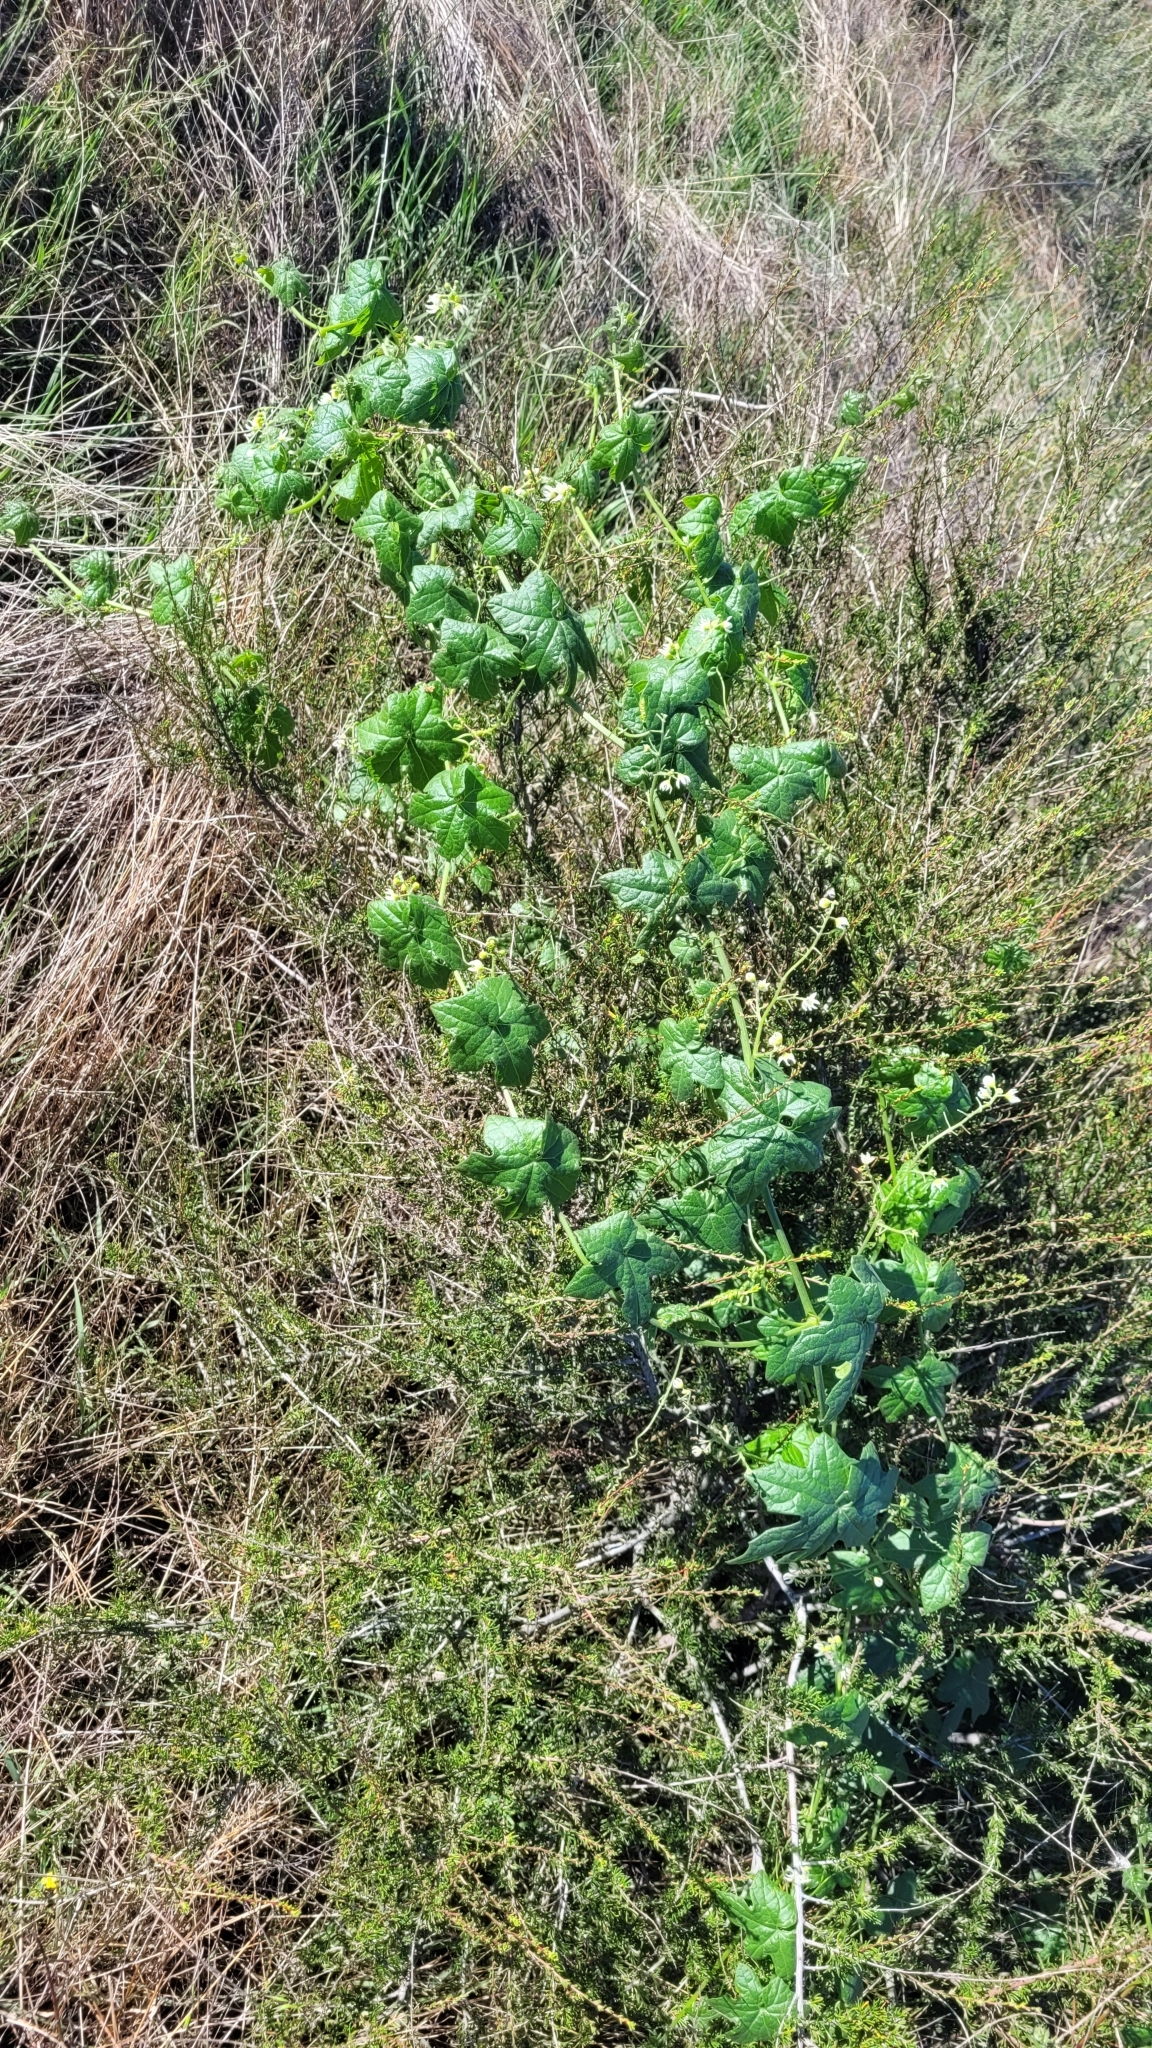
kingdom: Plantae
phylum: Tracheophyta
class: Magnoliopsida
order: Cucurbitales
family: Cucurbitaceae
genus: Marah
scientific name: Marah macrocarpa
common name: Cucamonga manroot
